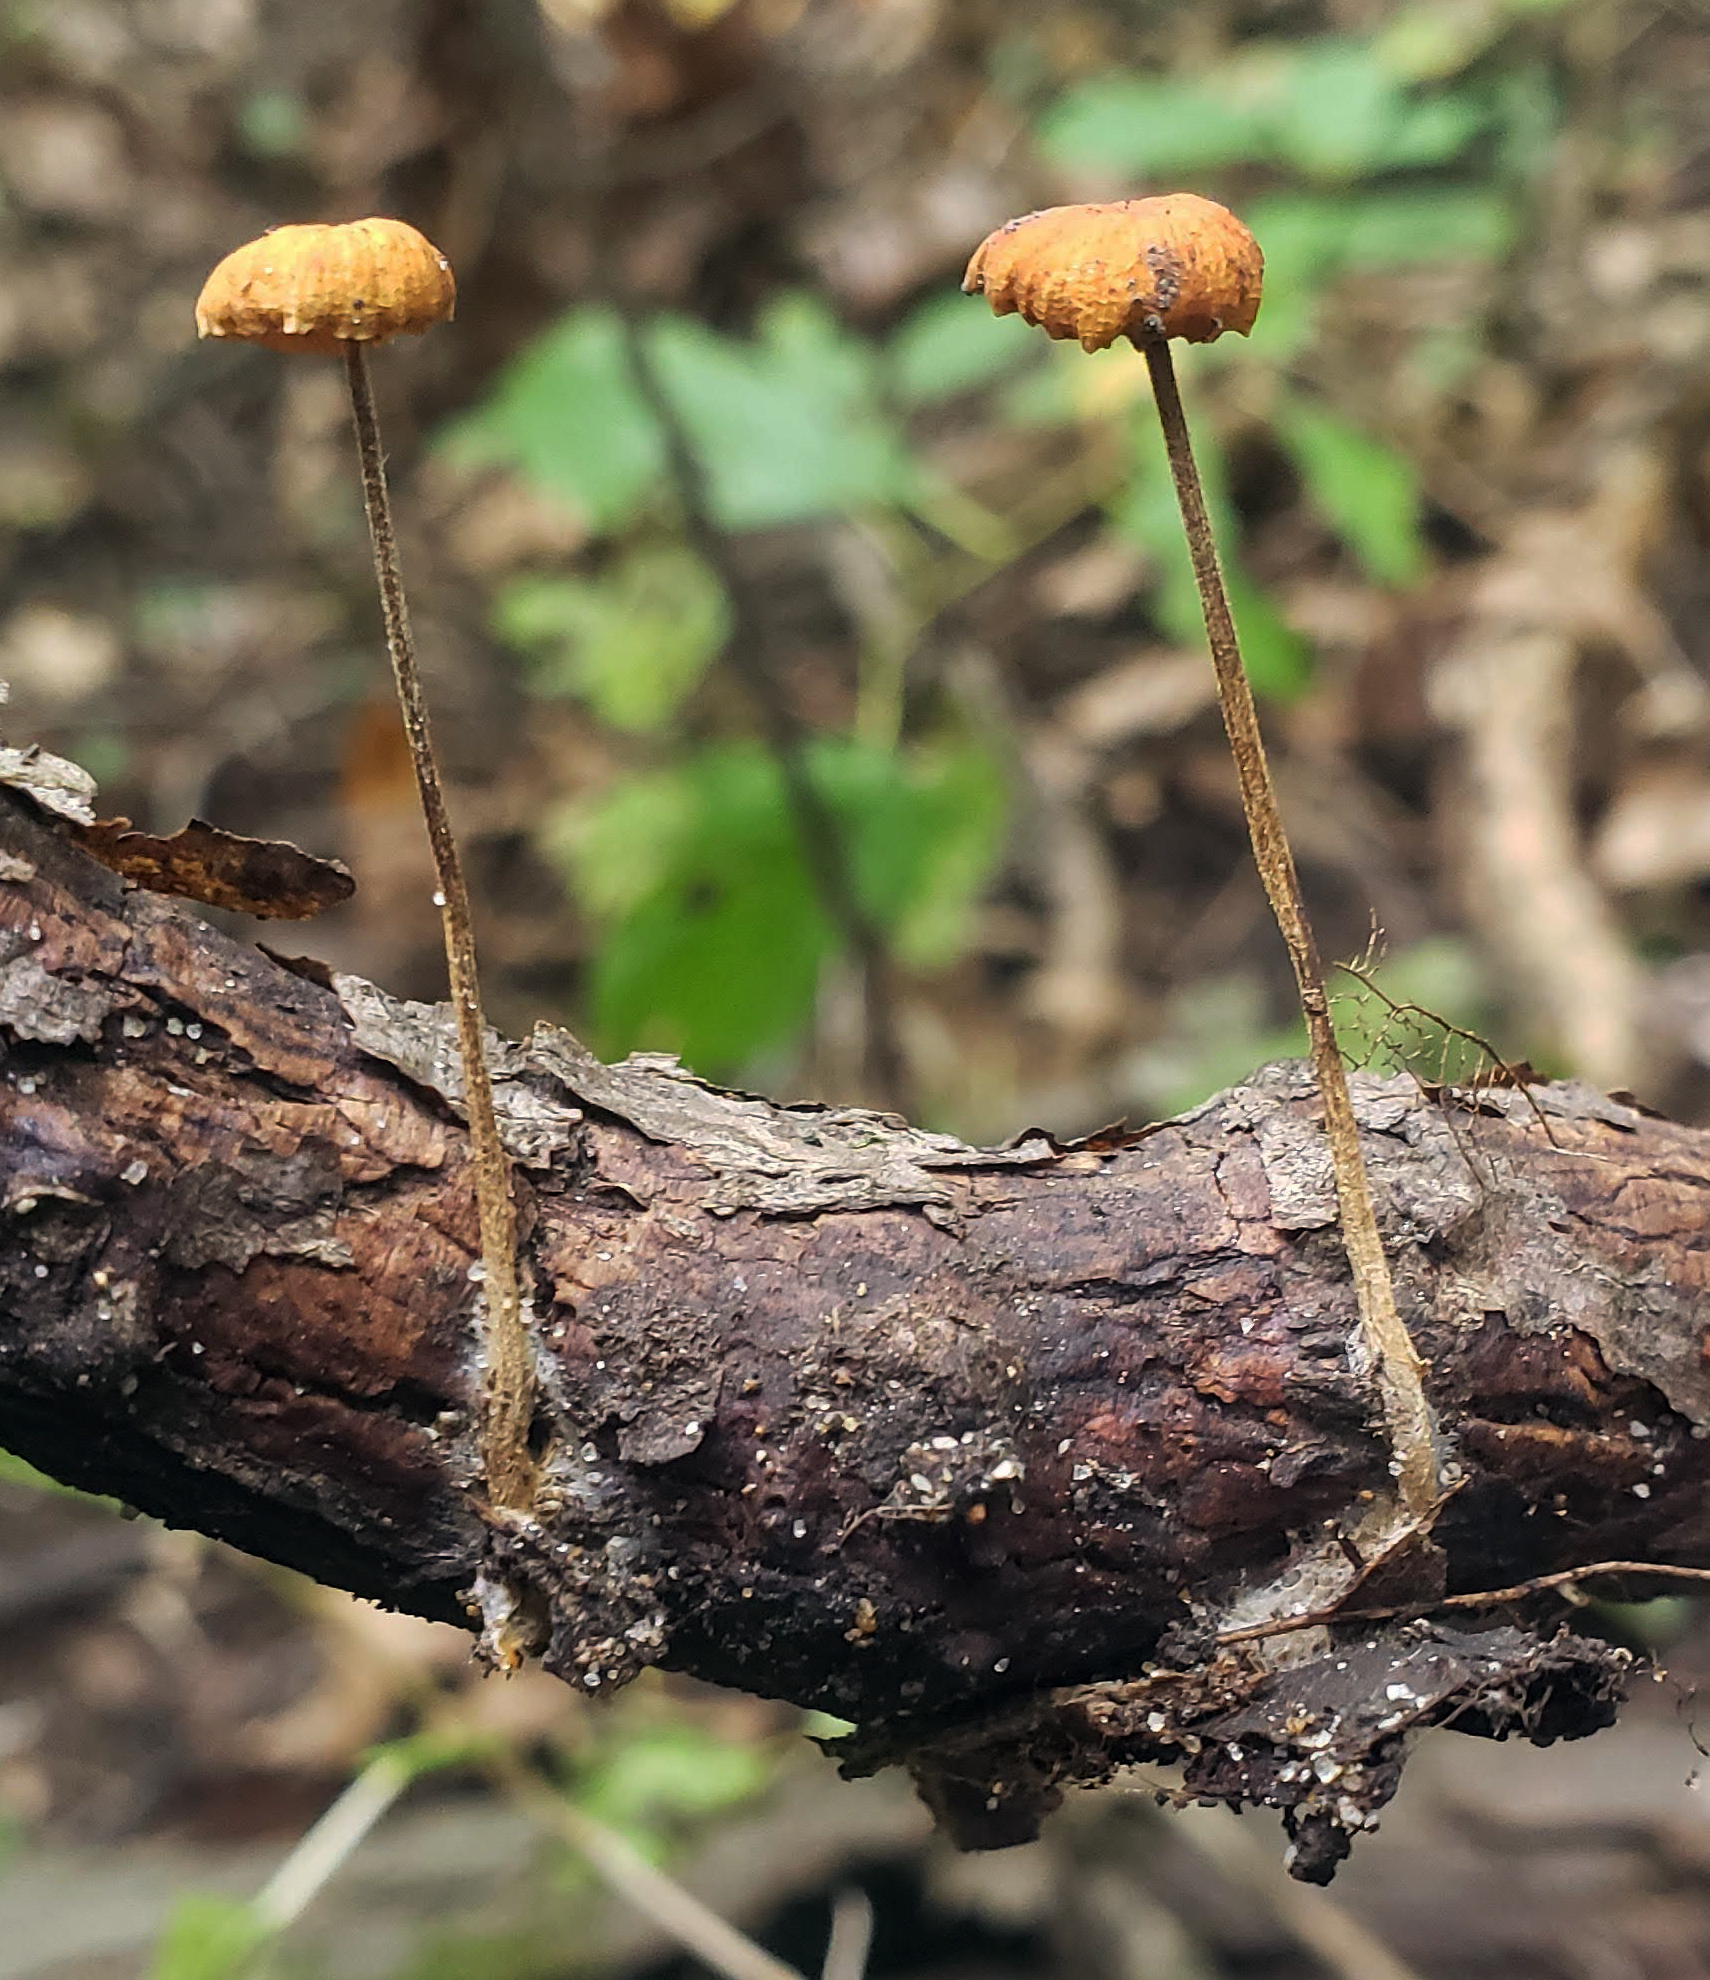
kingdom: Fungi
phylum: Basidiomycota
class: Agaricomycetes
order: Agaricales
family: Physalacriaceae
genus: Rhizomarasmius
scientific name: Rhizomarasmius pyrrhocephalus
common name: Hairy long stem marasmius
